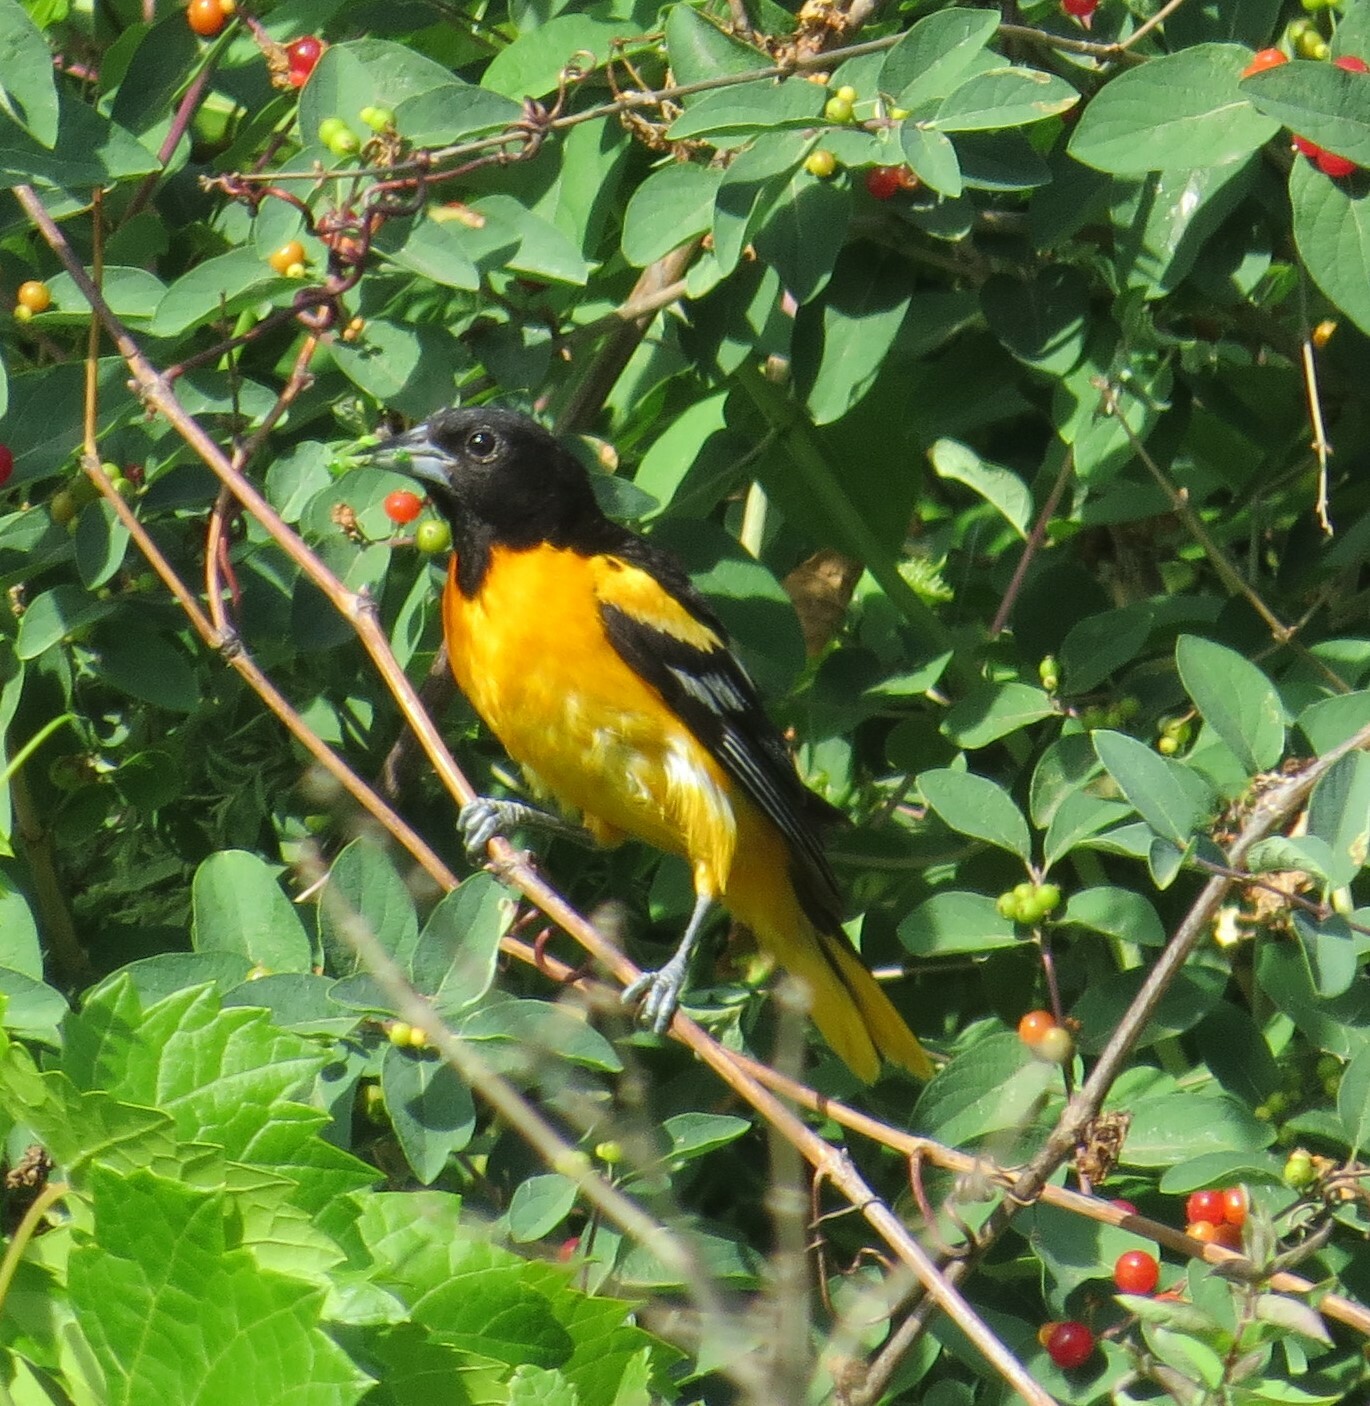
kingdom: Animalia
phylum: Chordata
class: Aves
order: Passeriformes
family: Icteridae
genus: Icterus
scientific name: Icterus galbula
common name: Baltimore oriole
